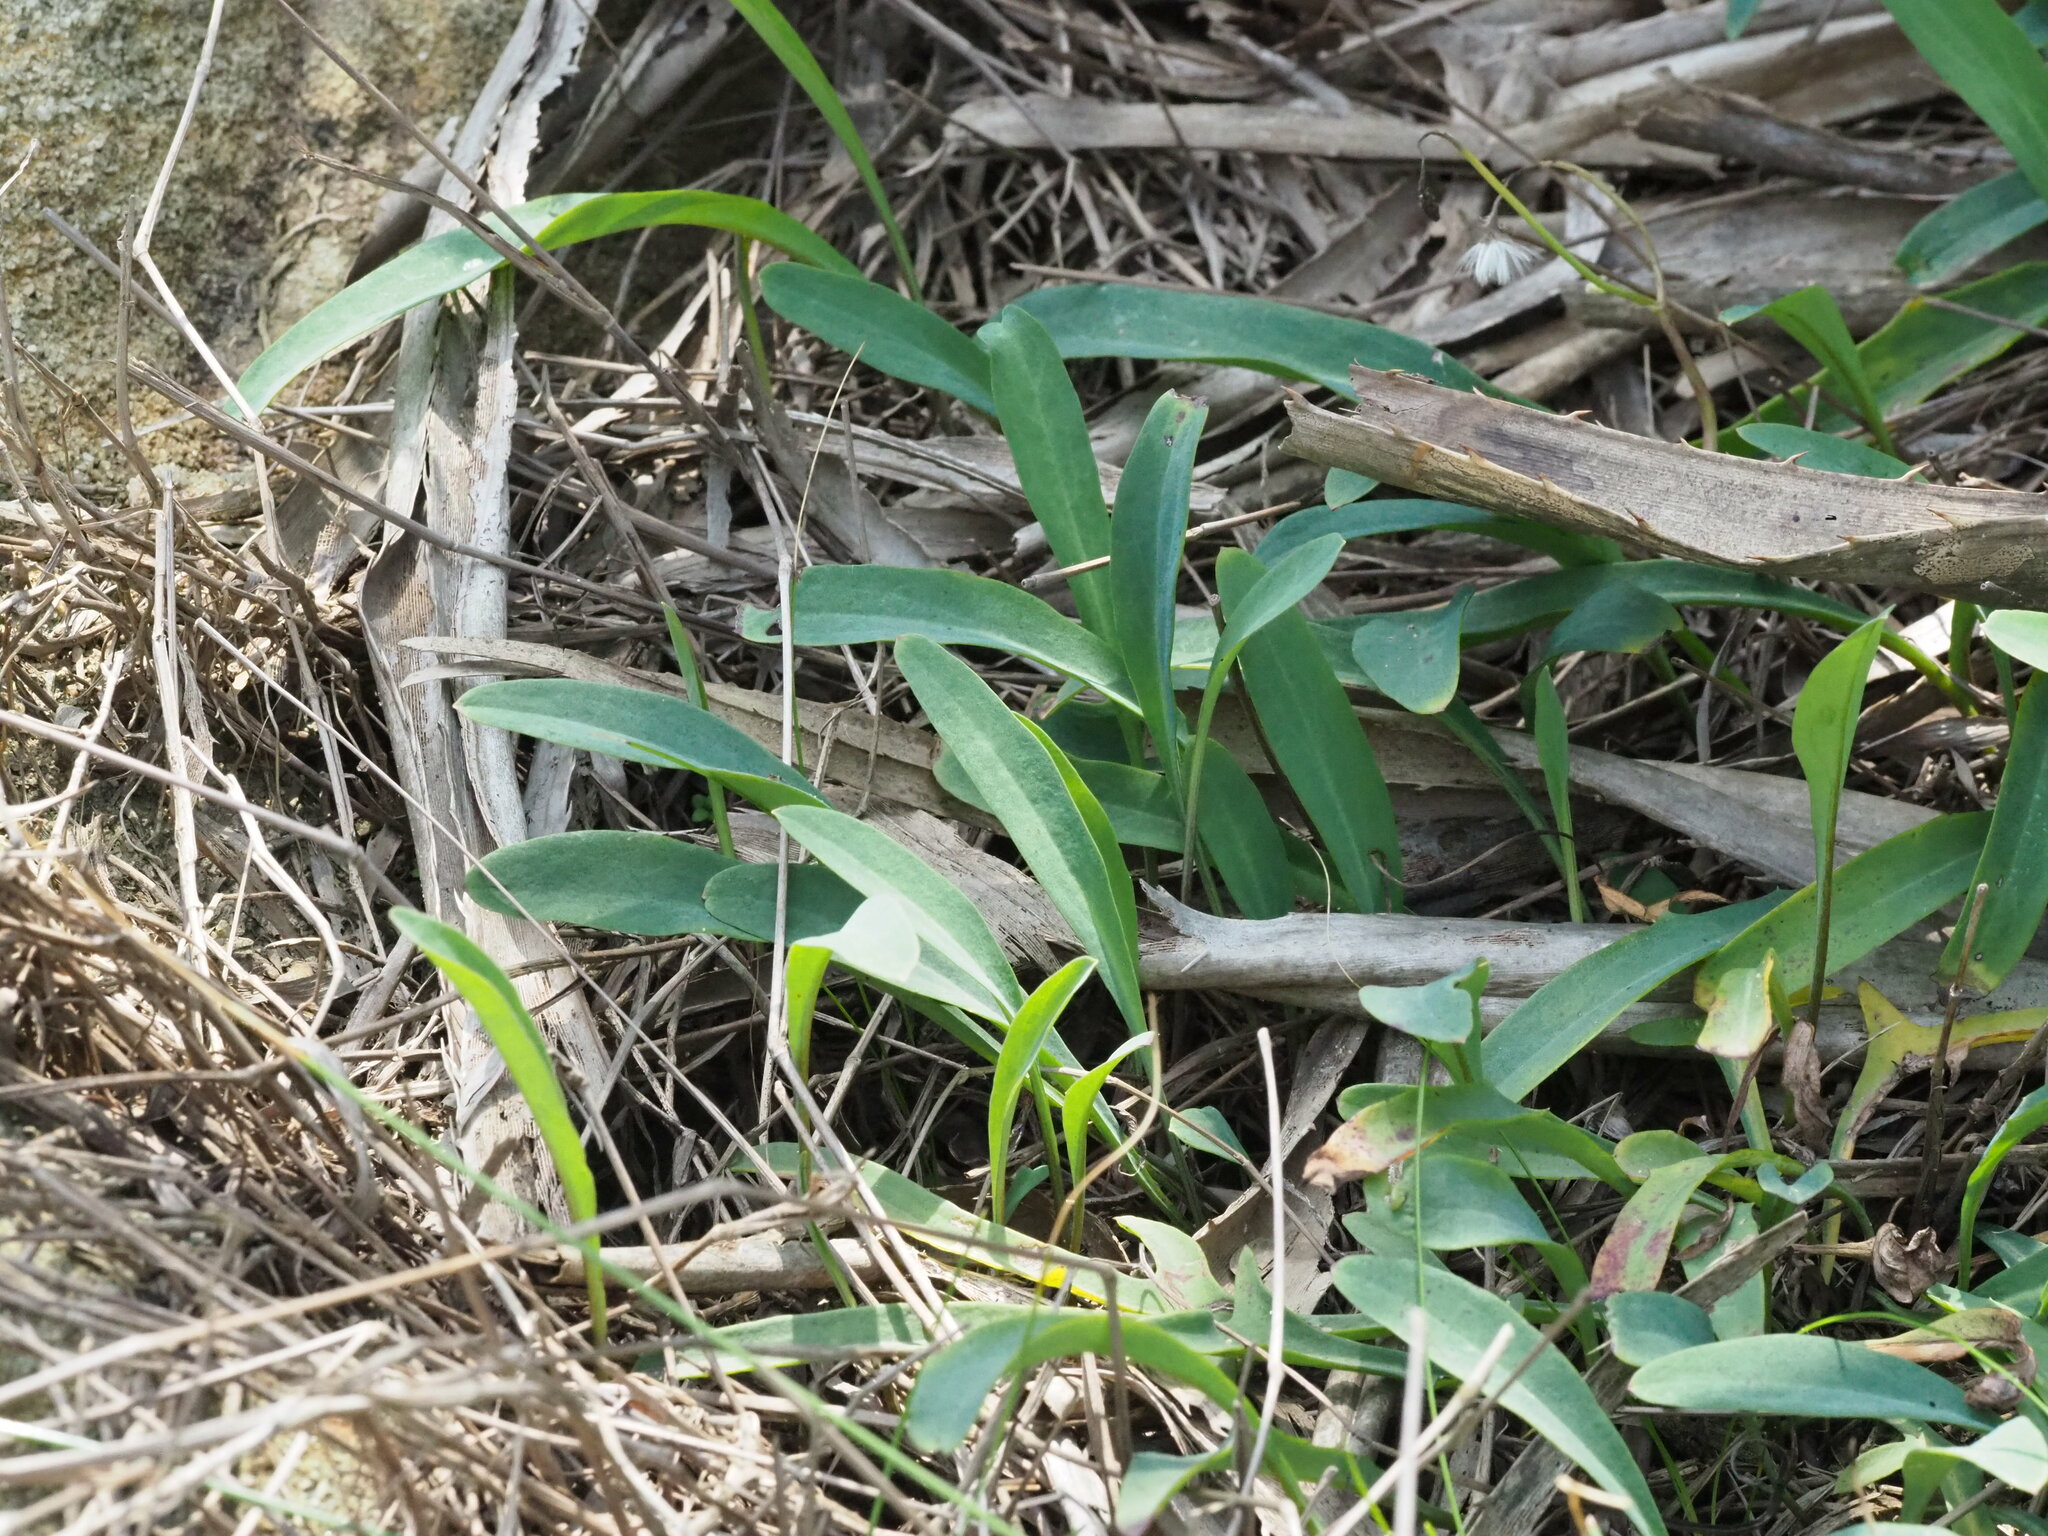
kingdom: Plantae
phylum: Tracheophyta
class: Magnoliopsida
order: Asterales
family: Asteraceae
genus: Ixeris
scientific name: Ixeris japonica
